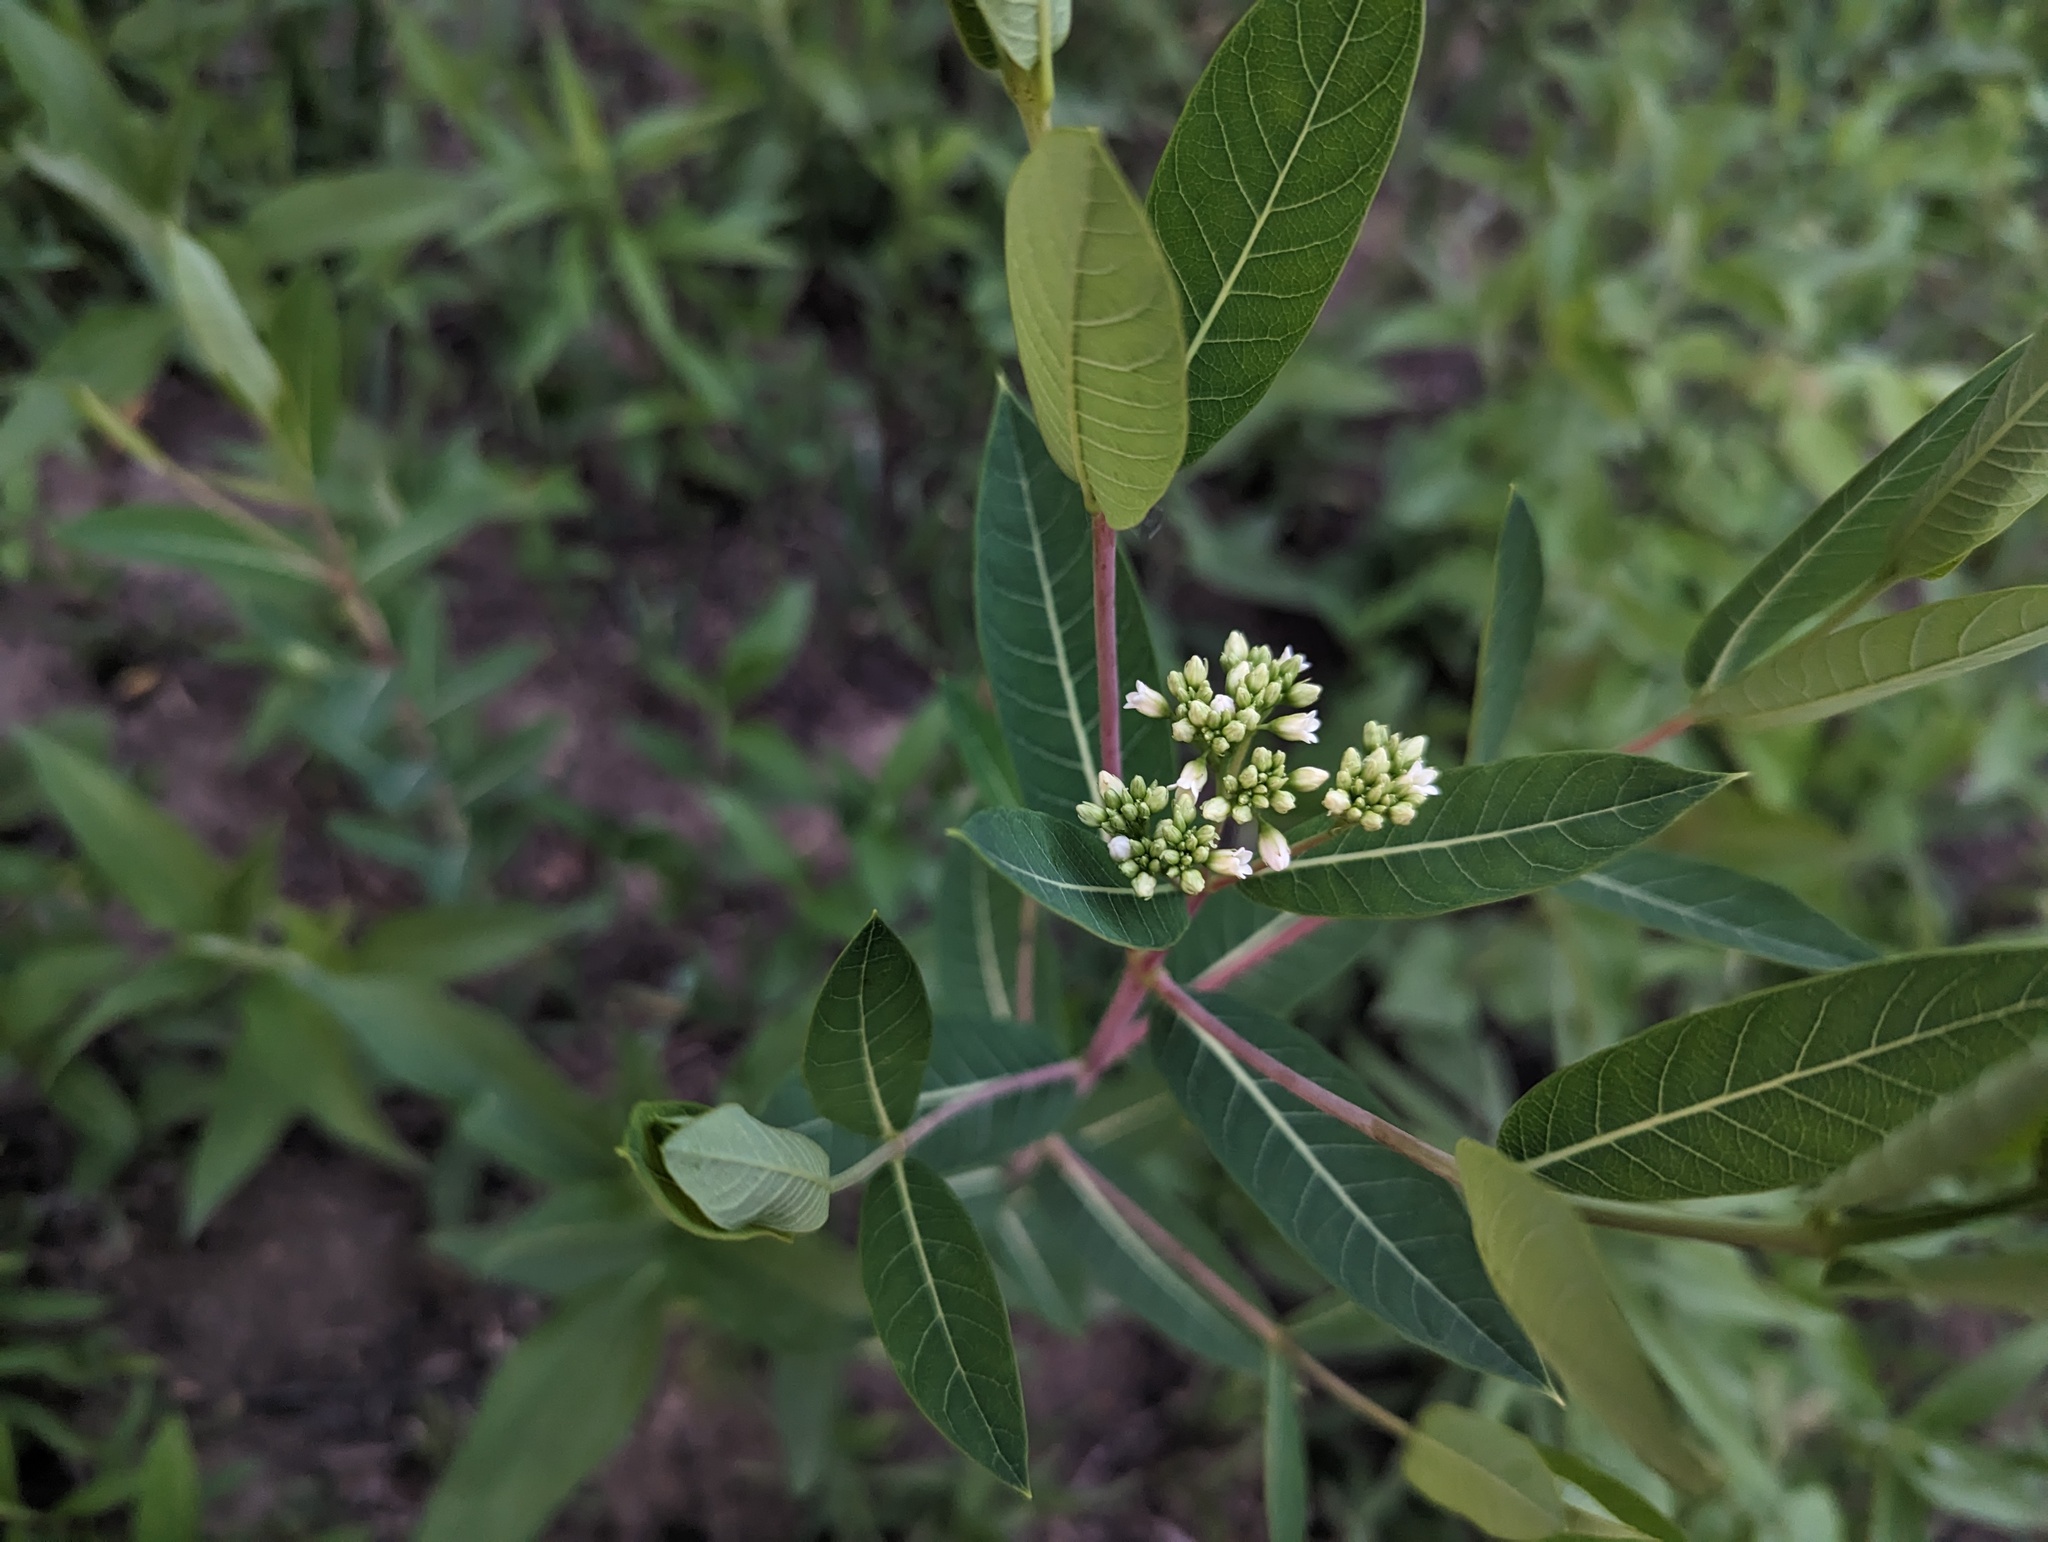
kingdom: Plantae
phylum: Tracheophyta
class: Magnoliopsida
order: Gentianales
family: Apocynaceae
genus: Apocynum
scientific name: Apocynum cannabinum
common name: Hemp dogbane
